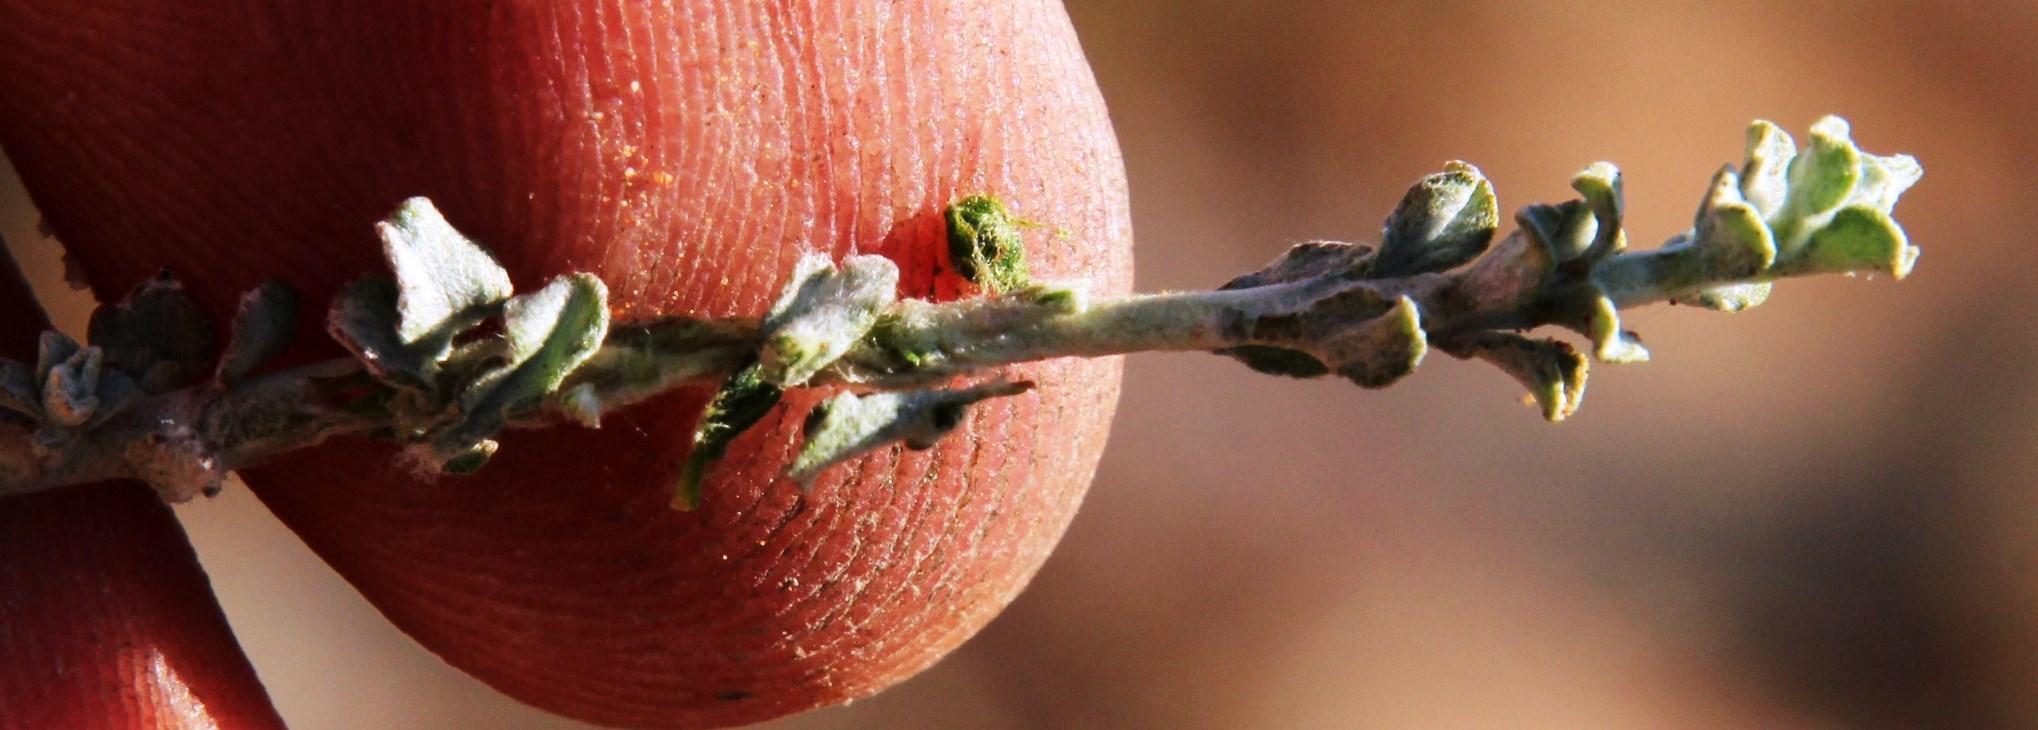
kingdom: Plantae
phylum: Tracheophyta
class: Magnoliopsida
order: Asterales
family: Asteraceae
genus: Helichrysum
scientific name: Helichrysum lucilioides
